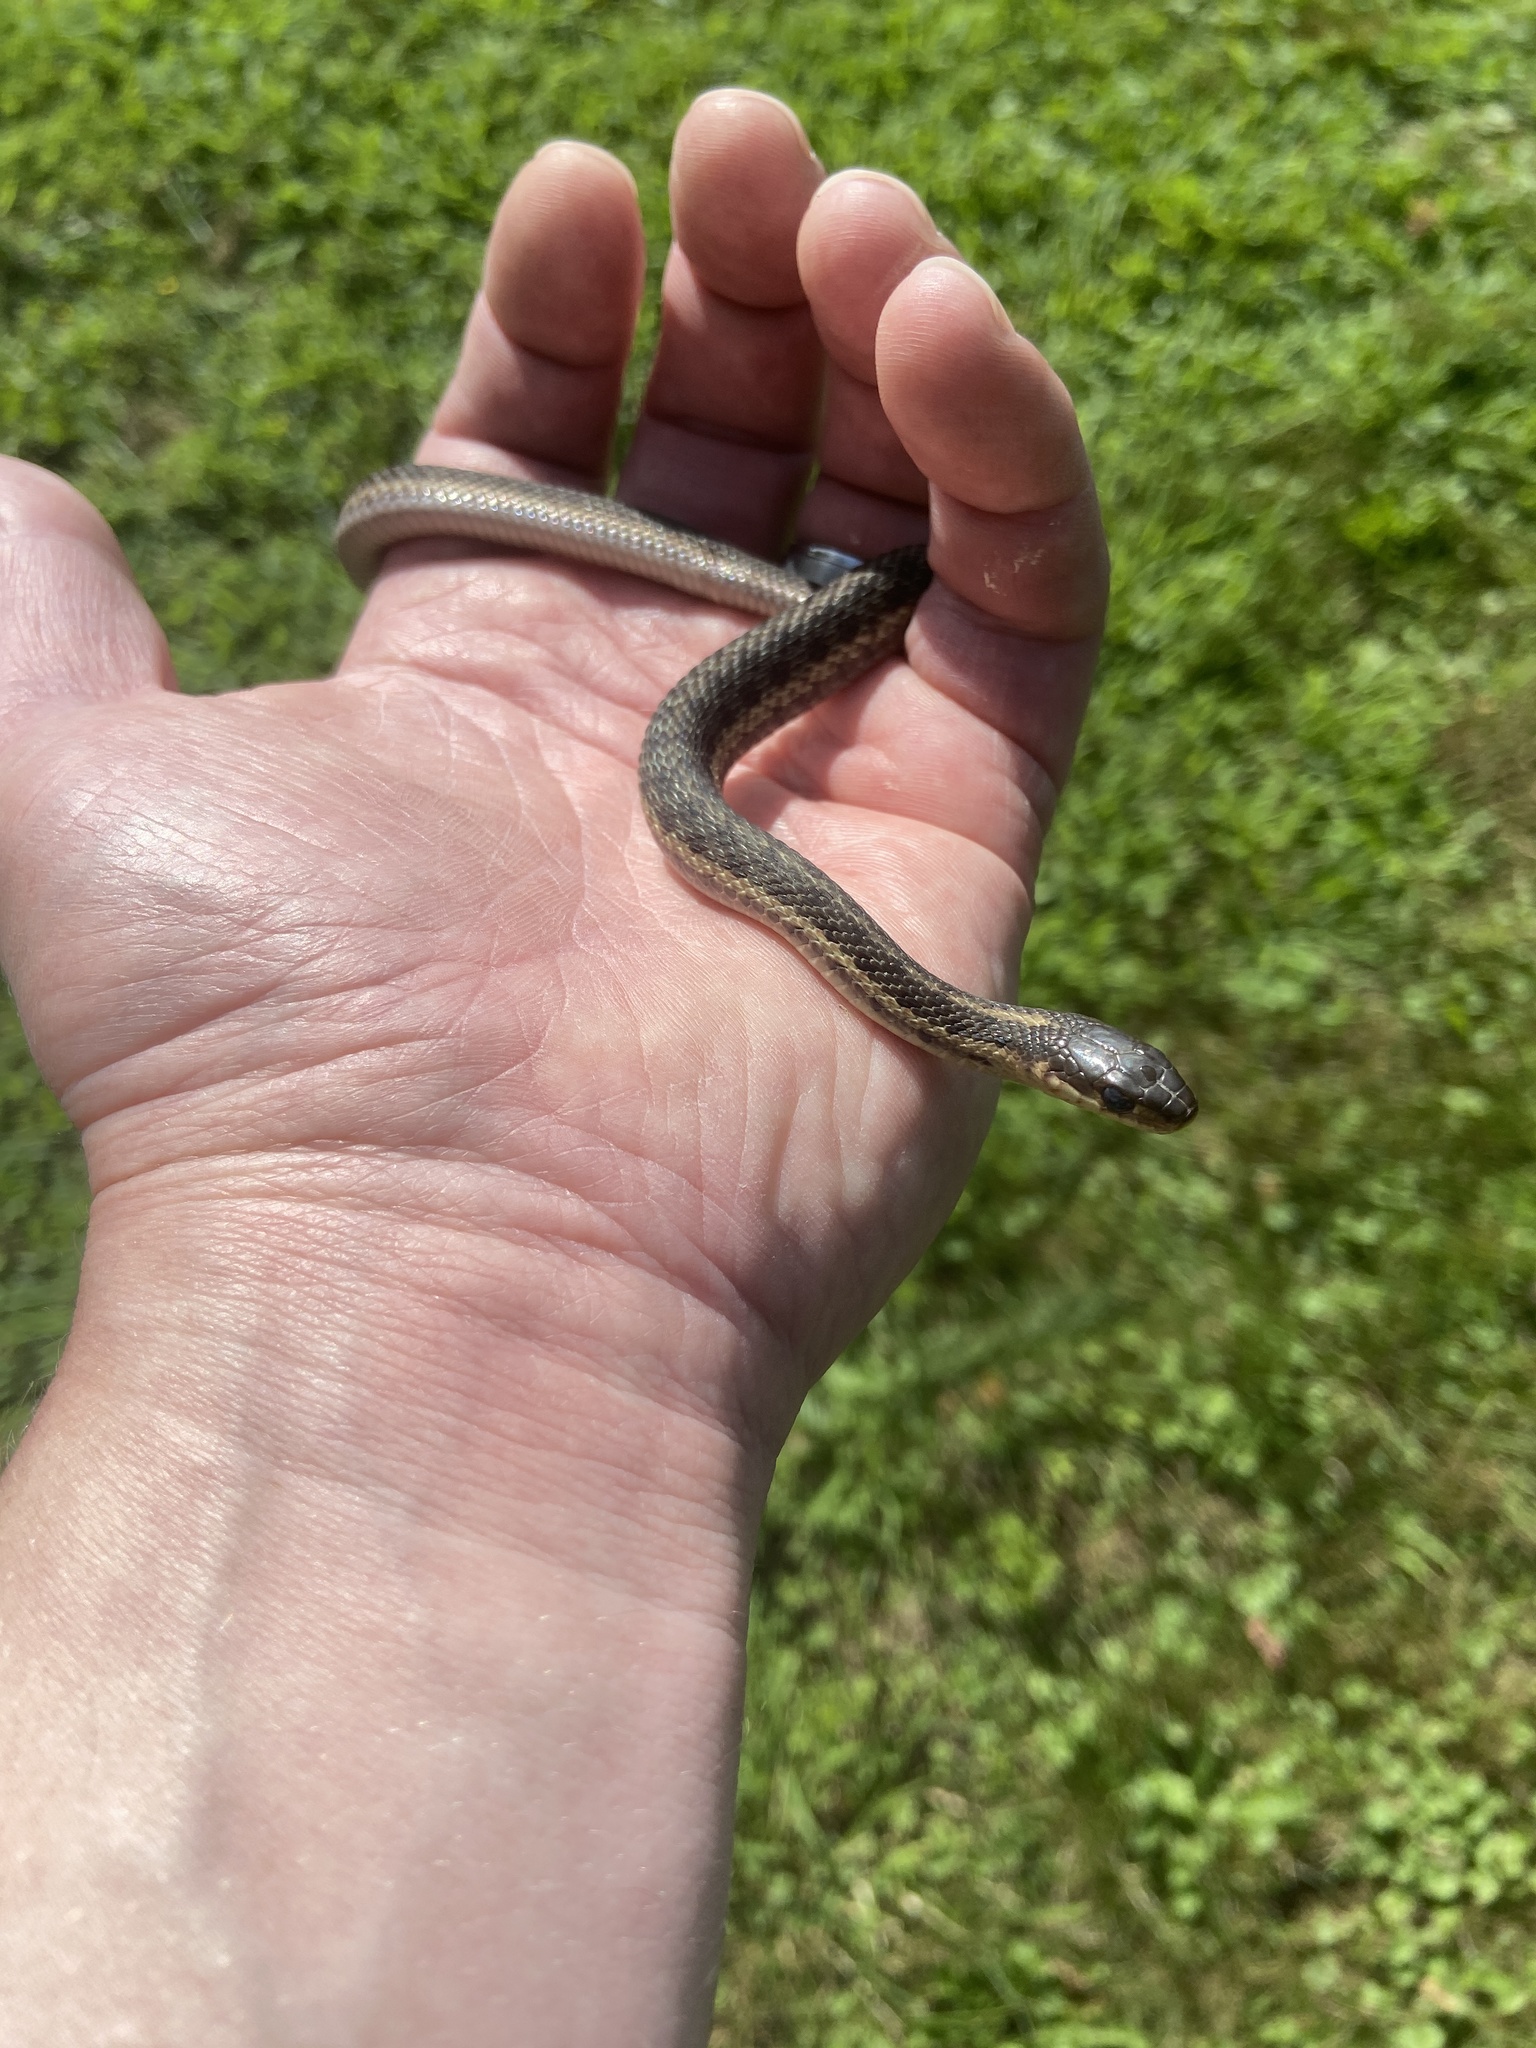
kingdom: Animalia
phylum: Chordata
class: Squamata
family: Colubridae
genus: Thamnophis
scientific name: Thamnophis sirtalis
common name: Common garter snake
